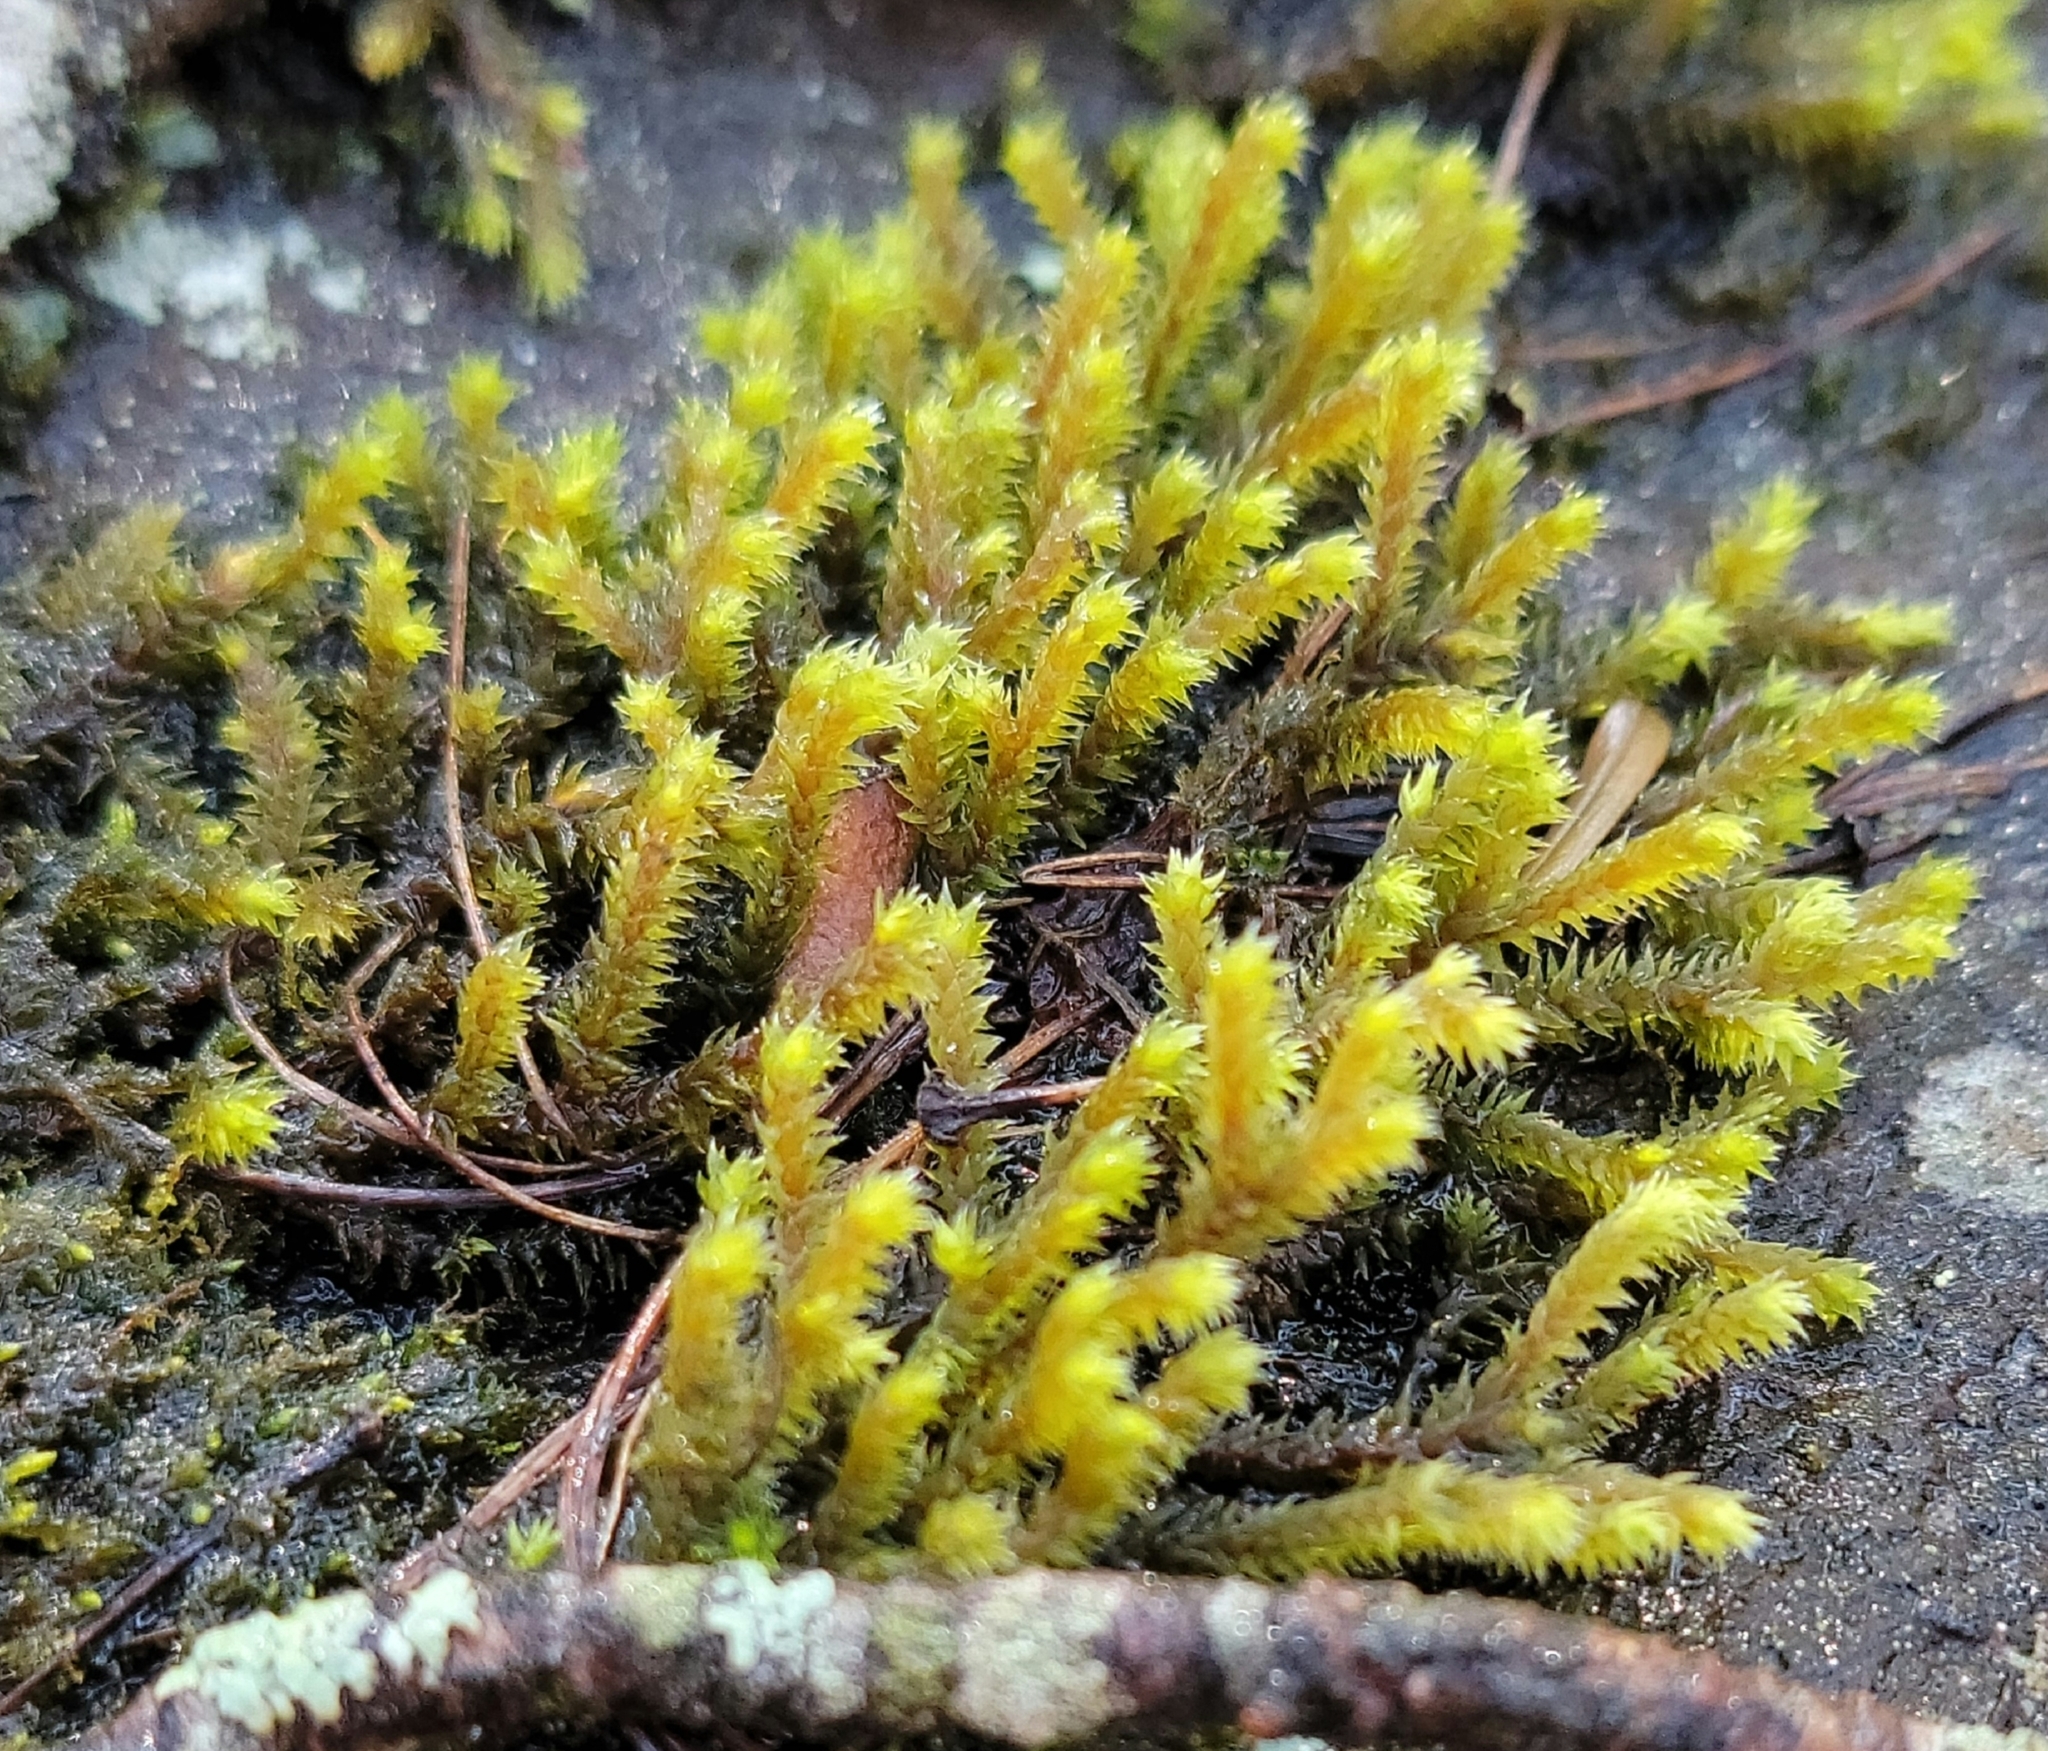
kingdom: Plantae
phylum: Bryophyta
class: Bryopsida
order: Hedwigiales
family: Hedwigiaceae
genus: Hedwigia
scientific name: Hedwigia ciliata
